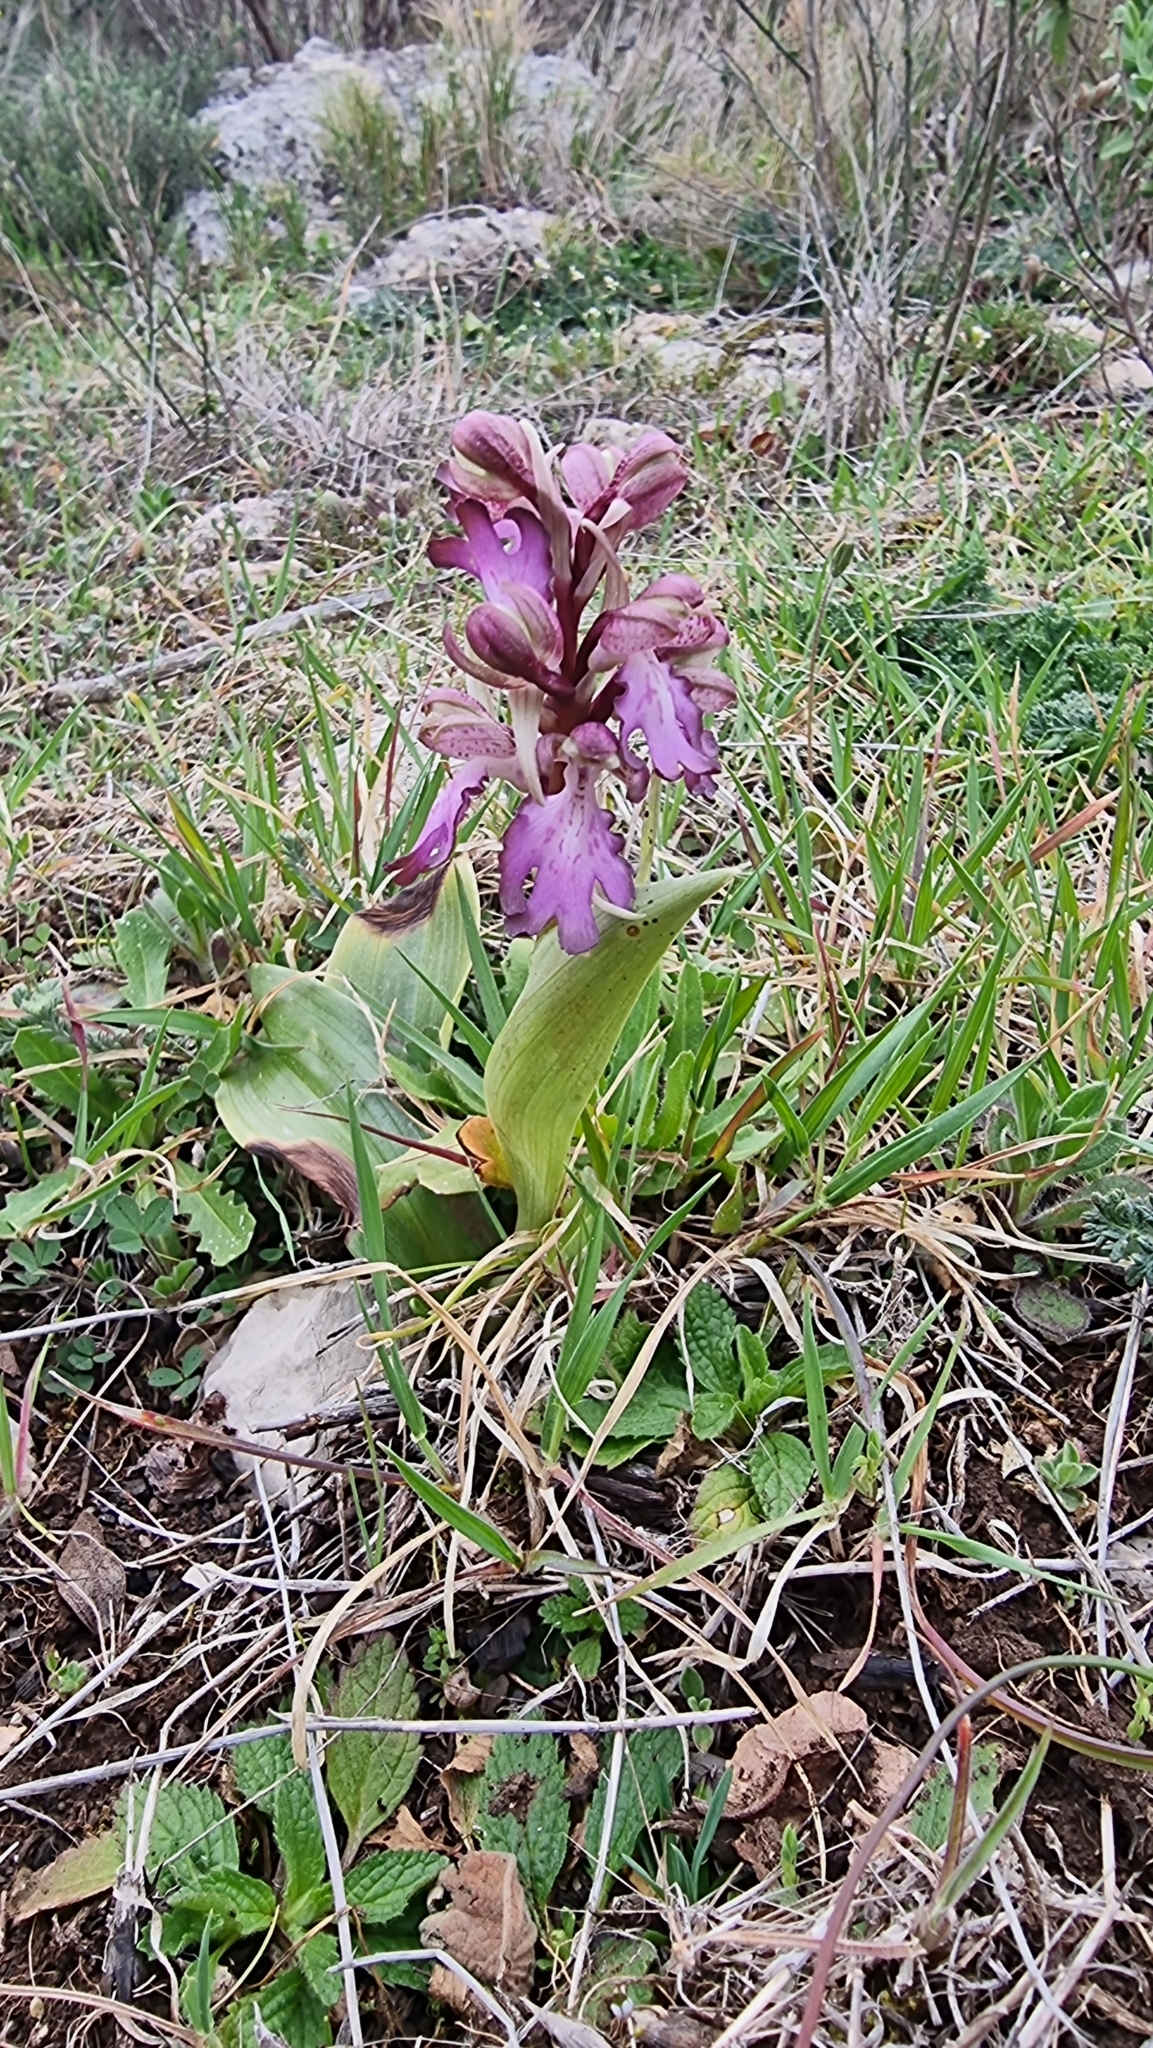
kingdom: Plantae
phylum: Tracheophyta
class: Liliopsida
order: Asparagales
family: Orchidaceae
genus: Himantoglossum
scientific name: Himantoglossum robertianum
